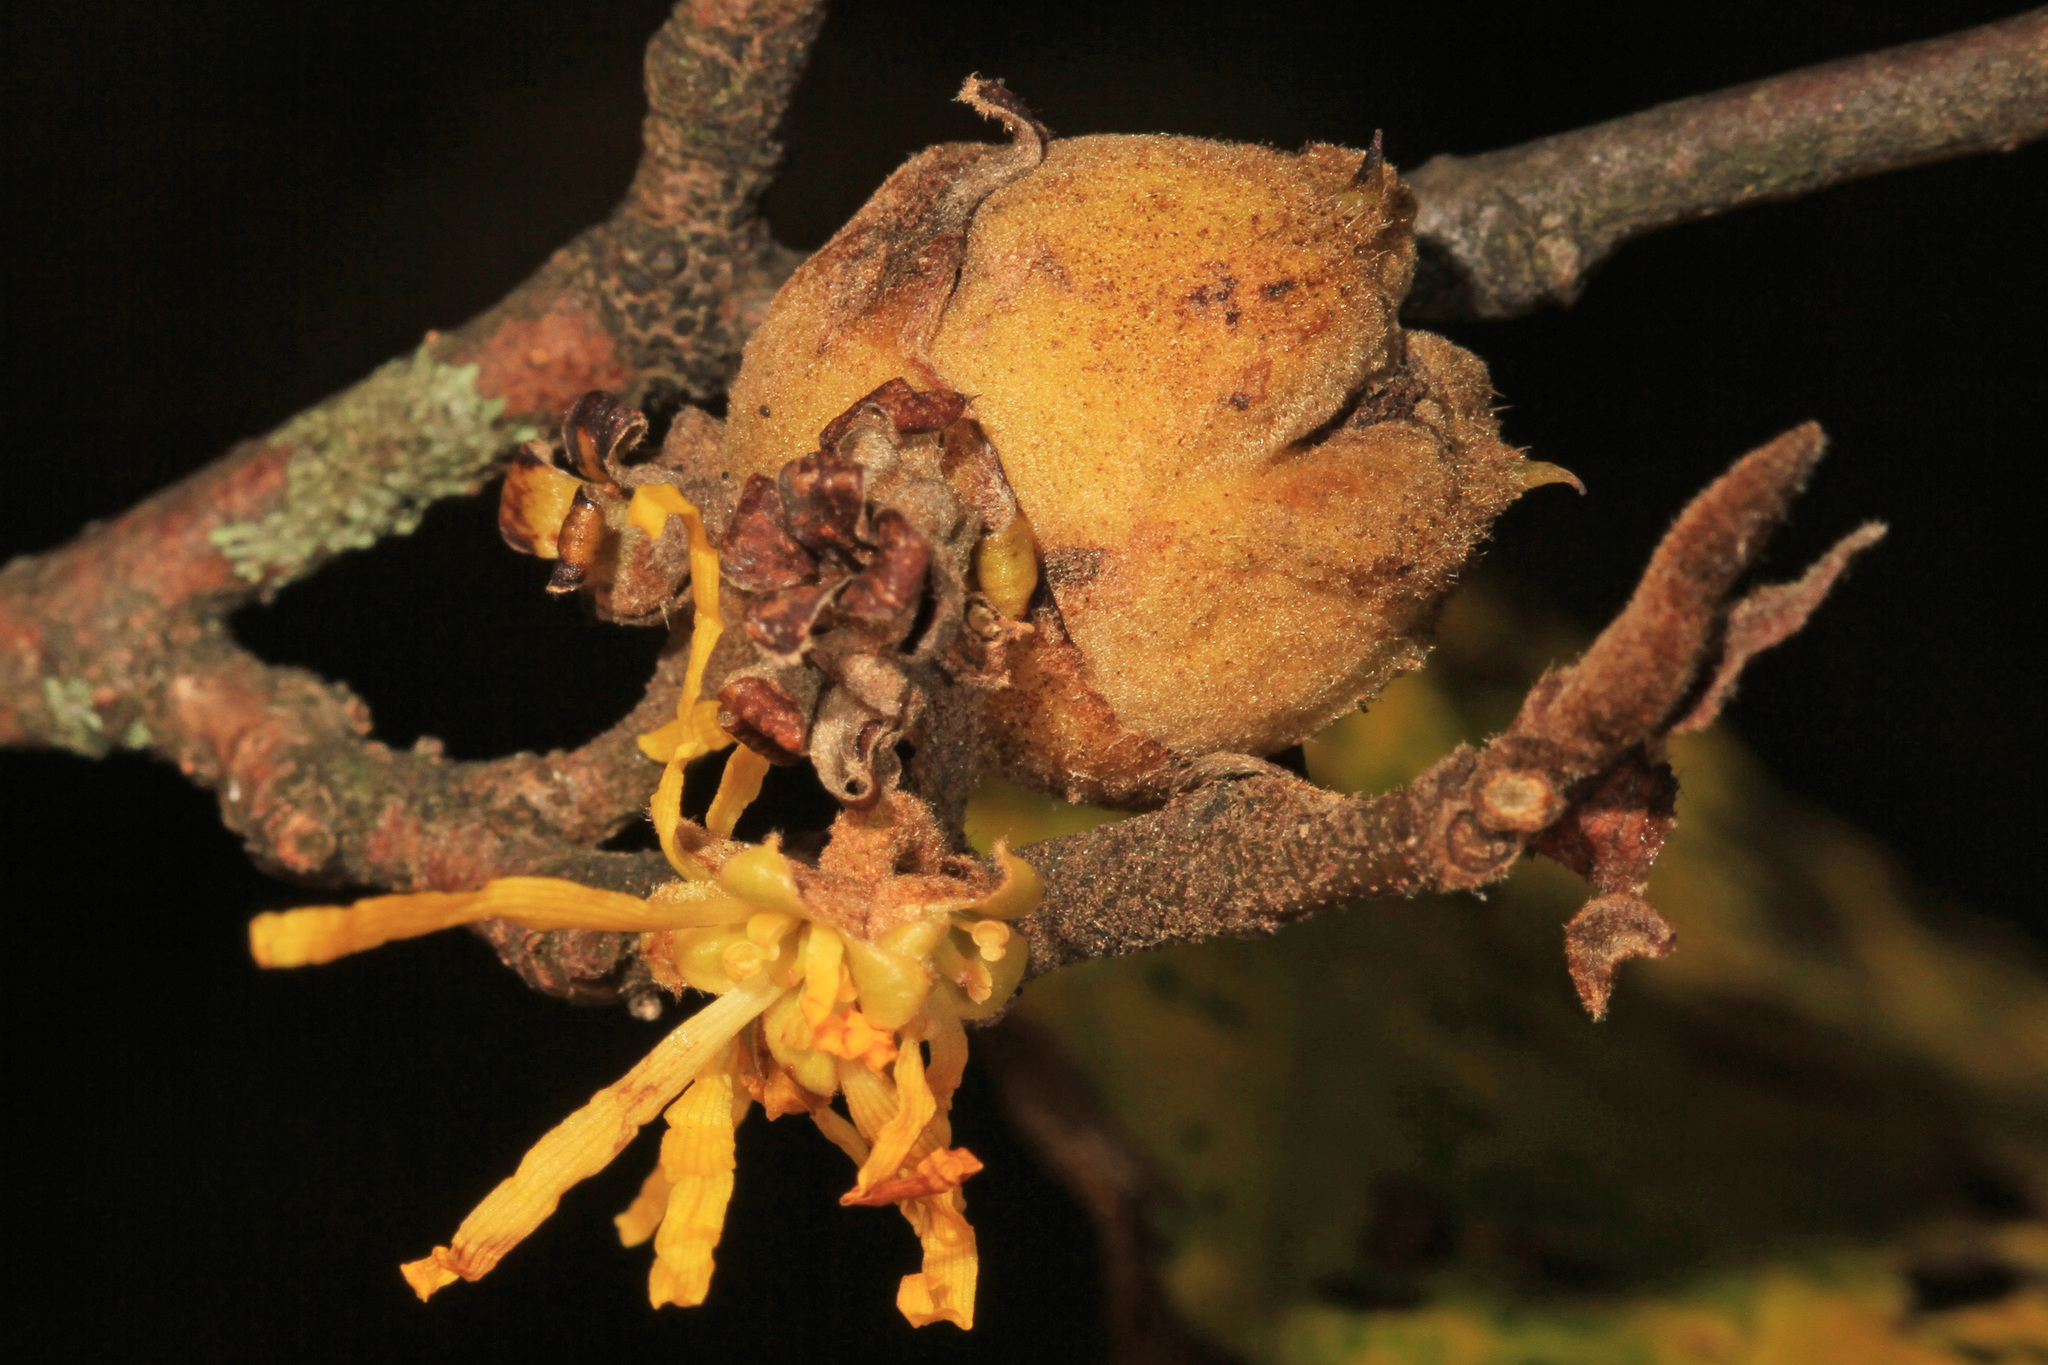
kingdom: Plantae
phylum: Tracheophyta
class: Magnoliopsida
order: Saxifragales
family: Hamamelidaceae
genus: Hamamelis
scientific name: Hamamelis virginiana
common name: Witch-hazel
